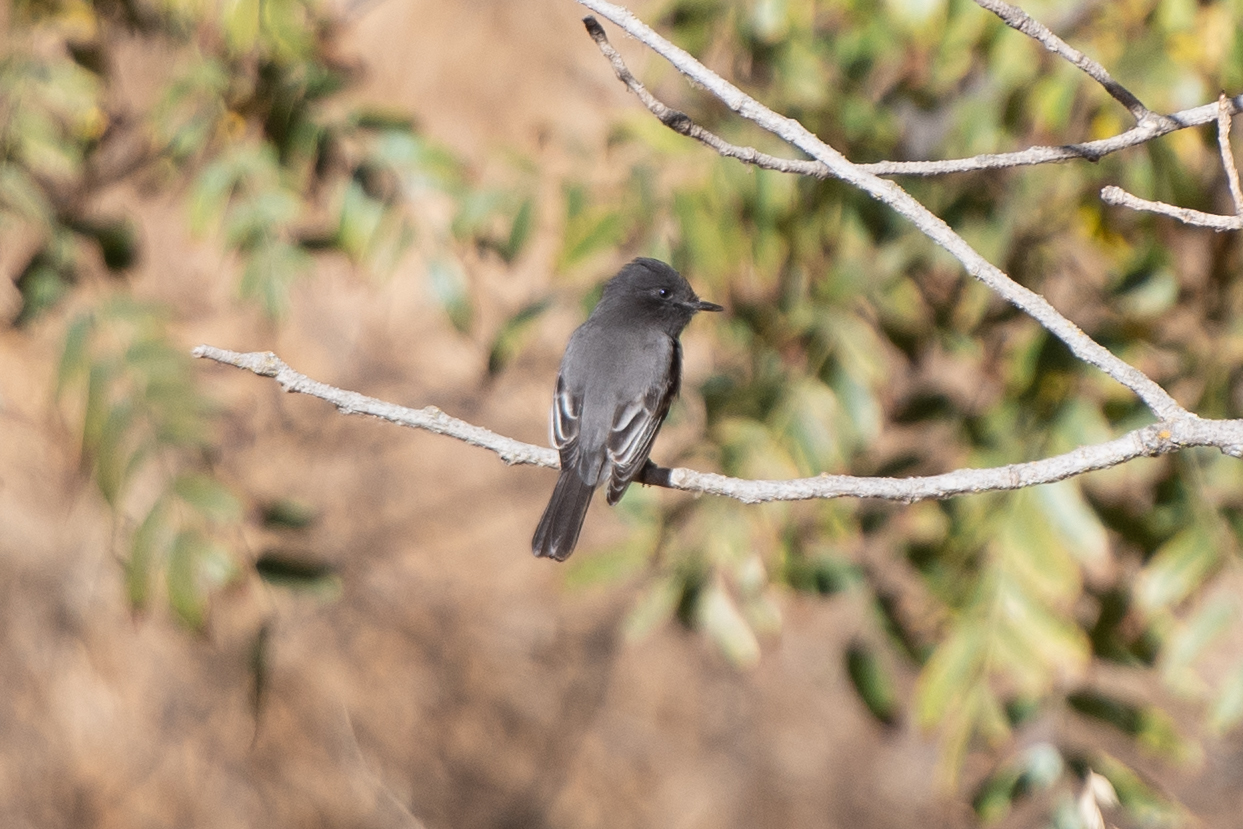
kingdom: Animalia
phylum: Chordata
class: Aves
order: Passeriformes
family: Tyrannidae
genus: Sayornis
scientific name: Sayornis nigricans
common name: Black phoebe
